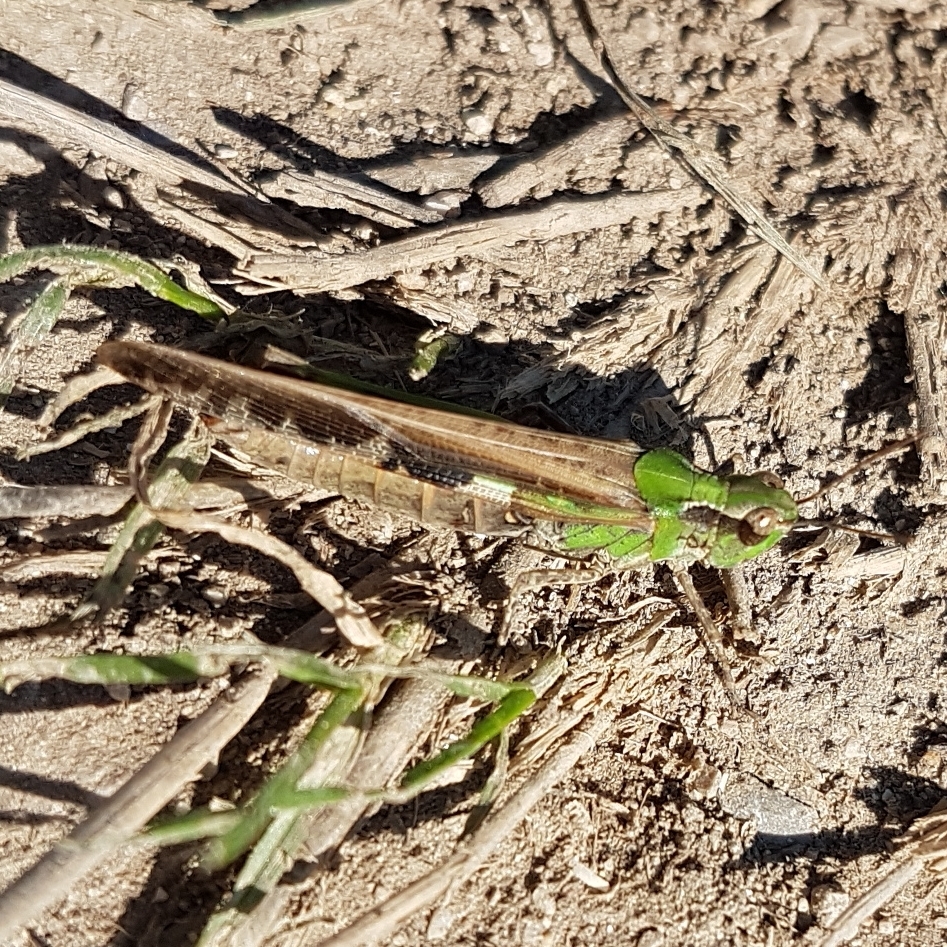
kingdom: Animalia
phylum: Arthropoda
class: Insecta
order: Orthoptera
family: Acrididae
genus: Aiolopus
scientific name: Aiolopus puissanti
